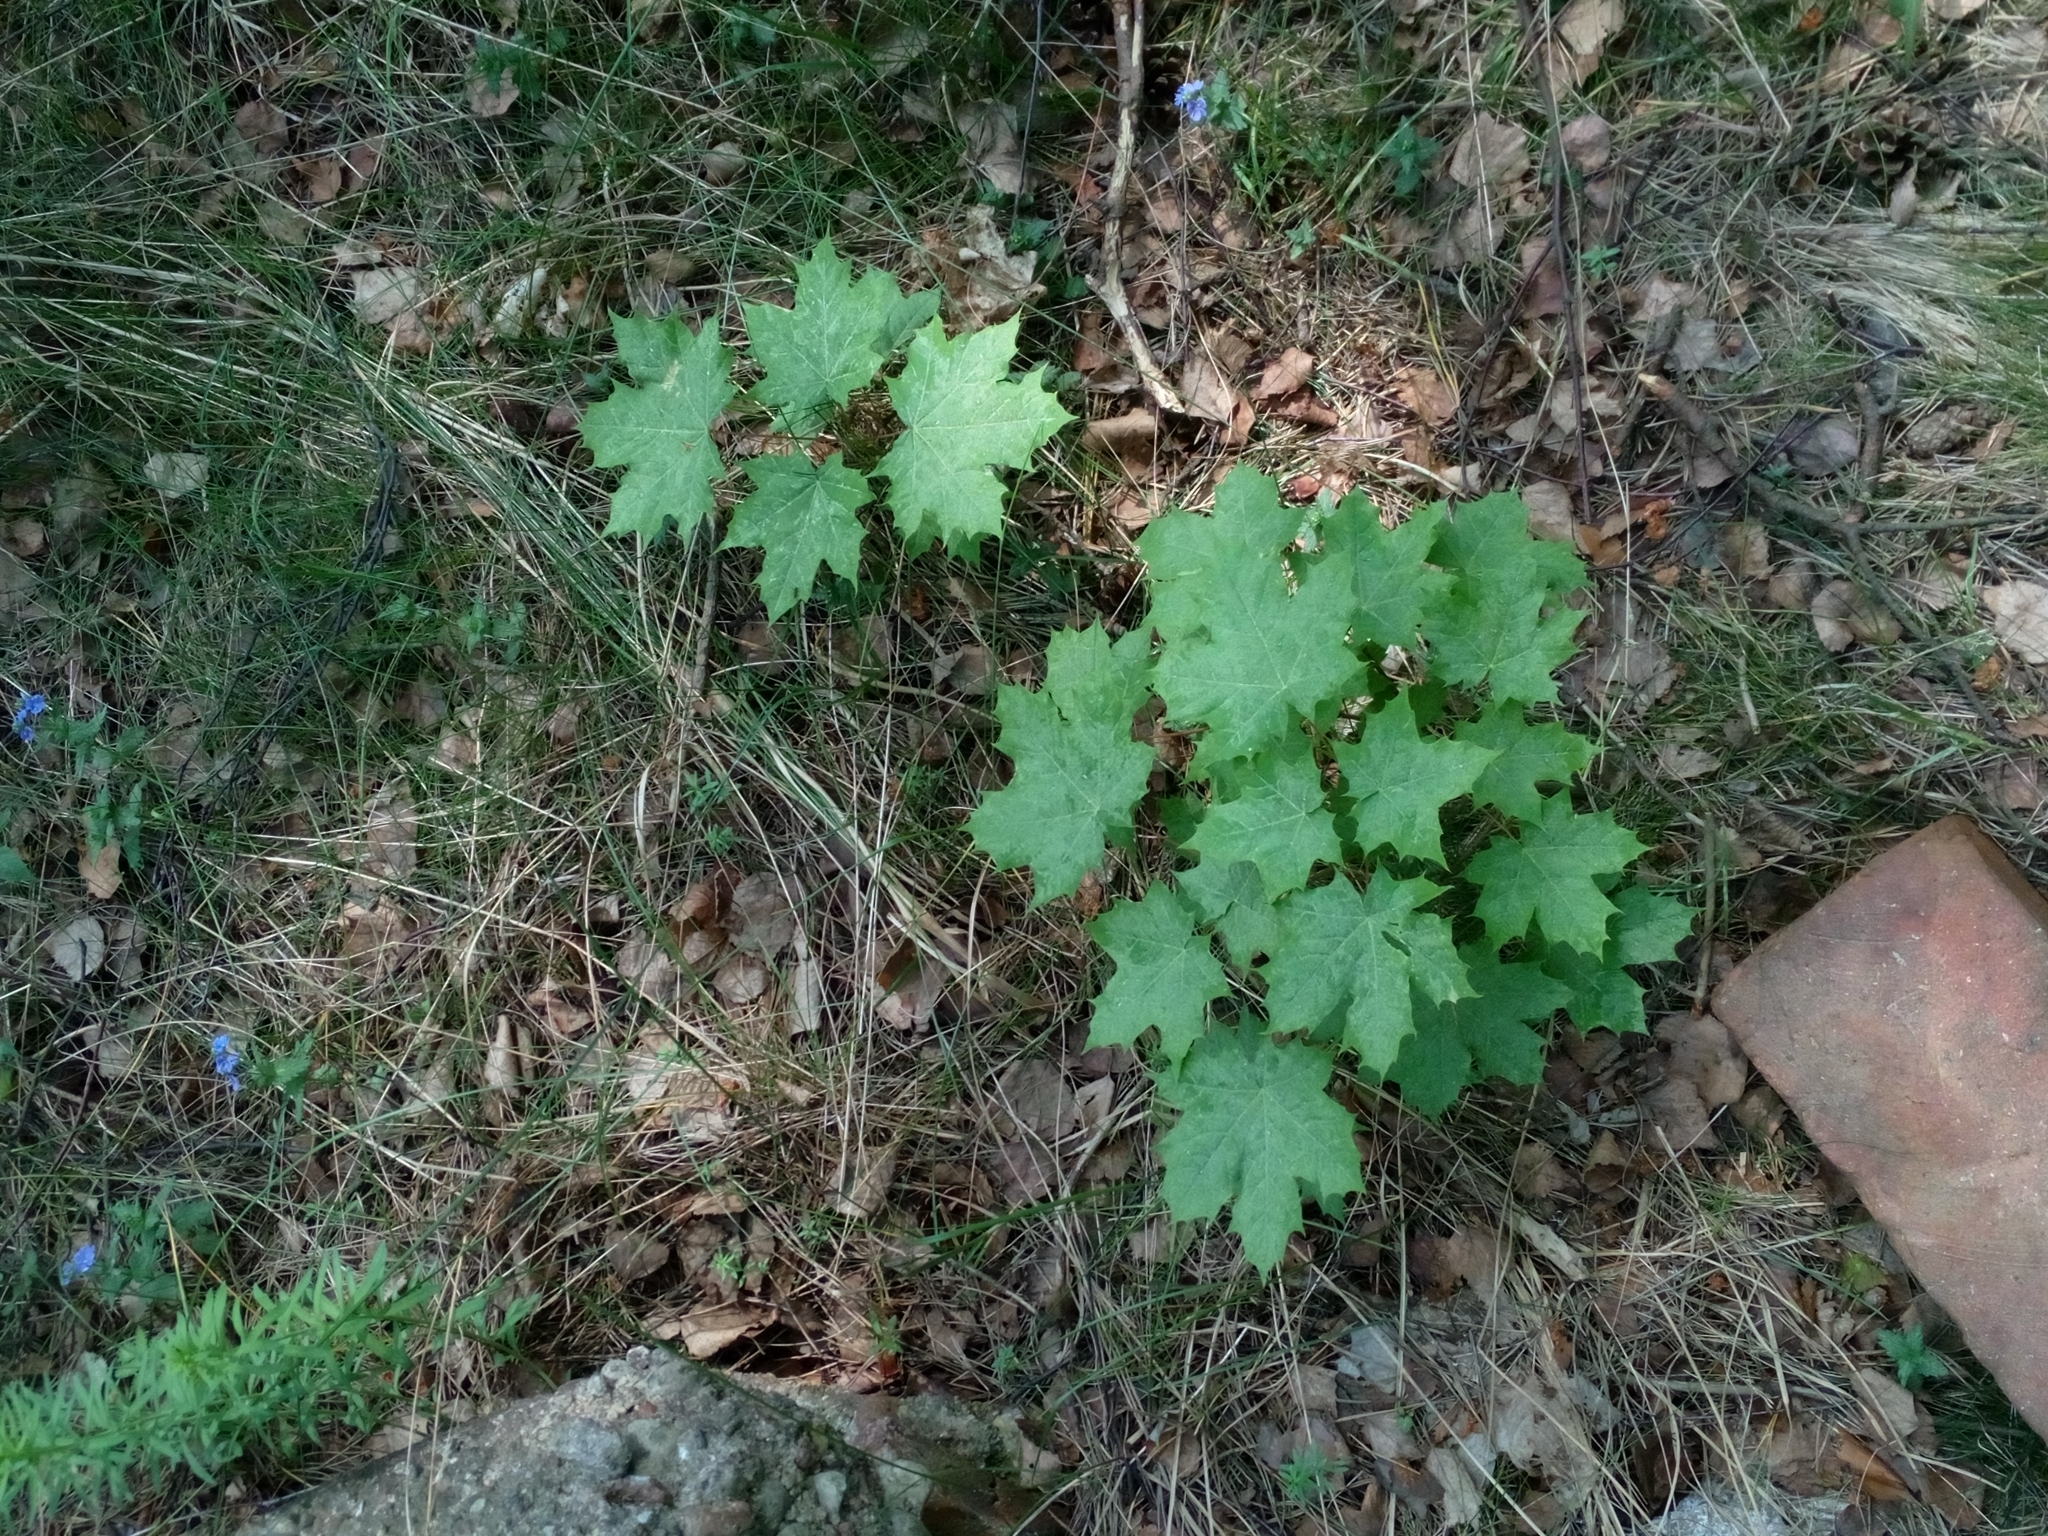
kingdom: Plantae
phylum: Tracheophyta
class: Magnoliopsida
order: Sapindales
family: Sapindaceae
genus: Acer
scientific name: Acer platanoides
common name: Norway maple
